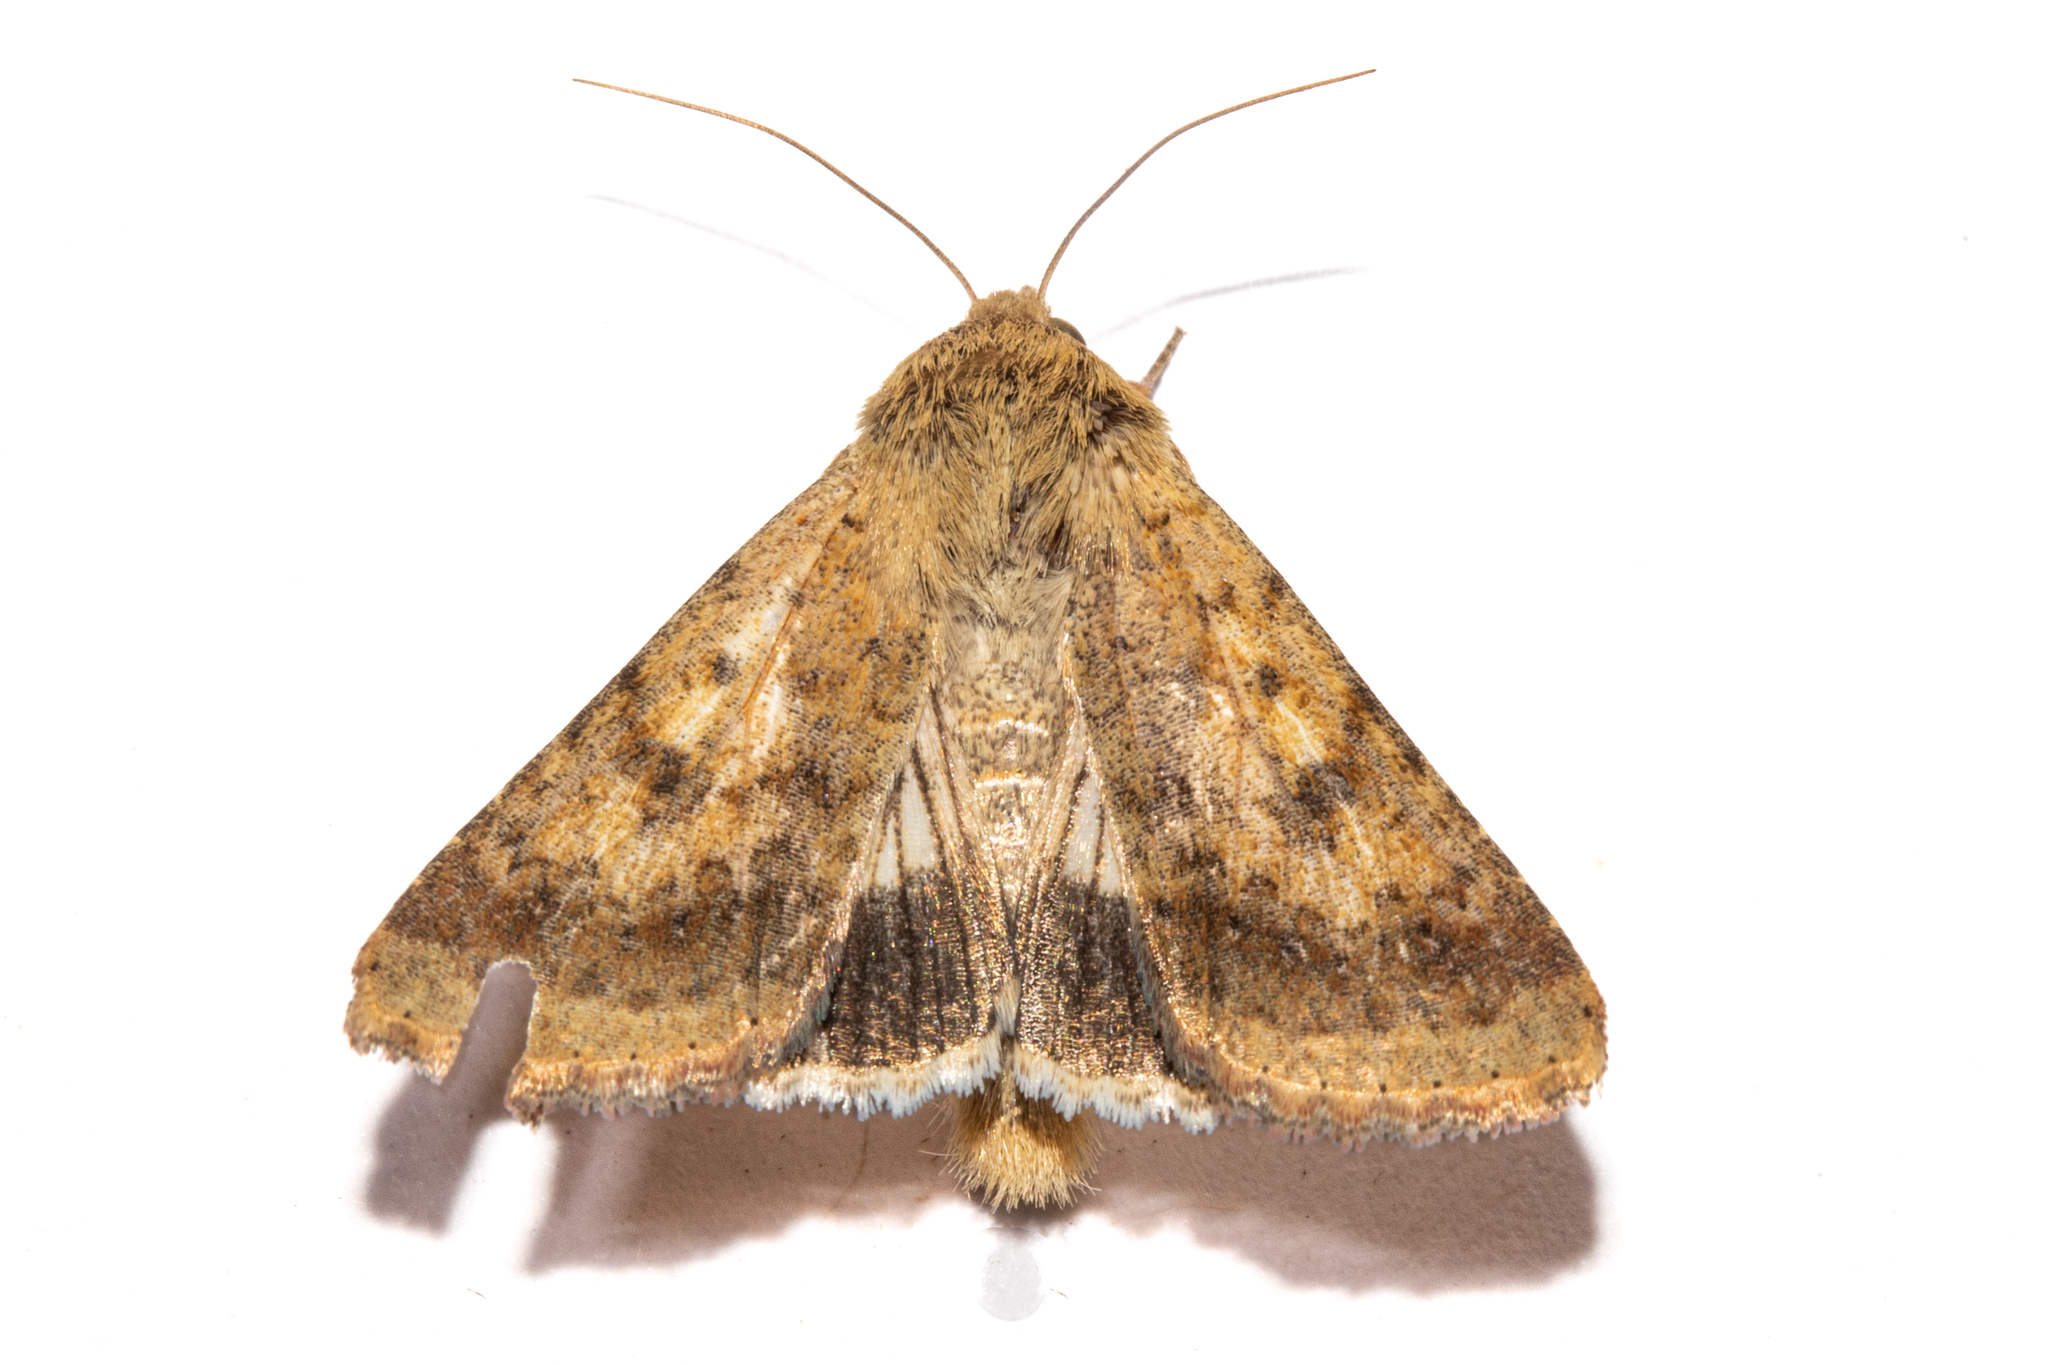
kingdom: Animalia
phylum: Arthropoda
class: Insecta
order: Lepidoptera
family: Noctuidae
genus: Helicoverpa
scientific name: Helicoverpa punctigera
